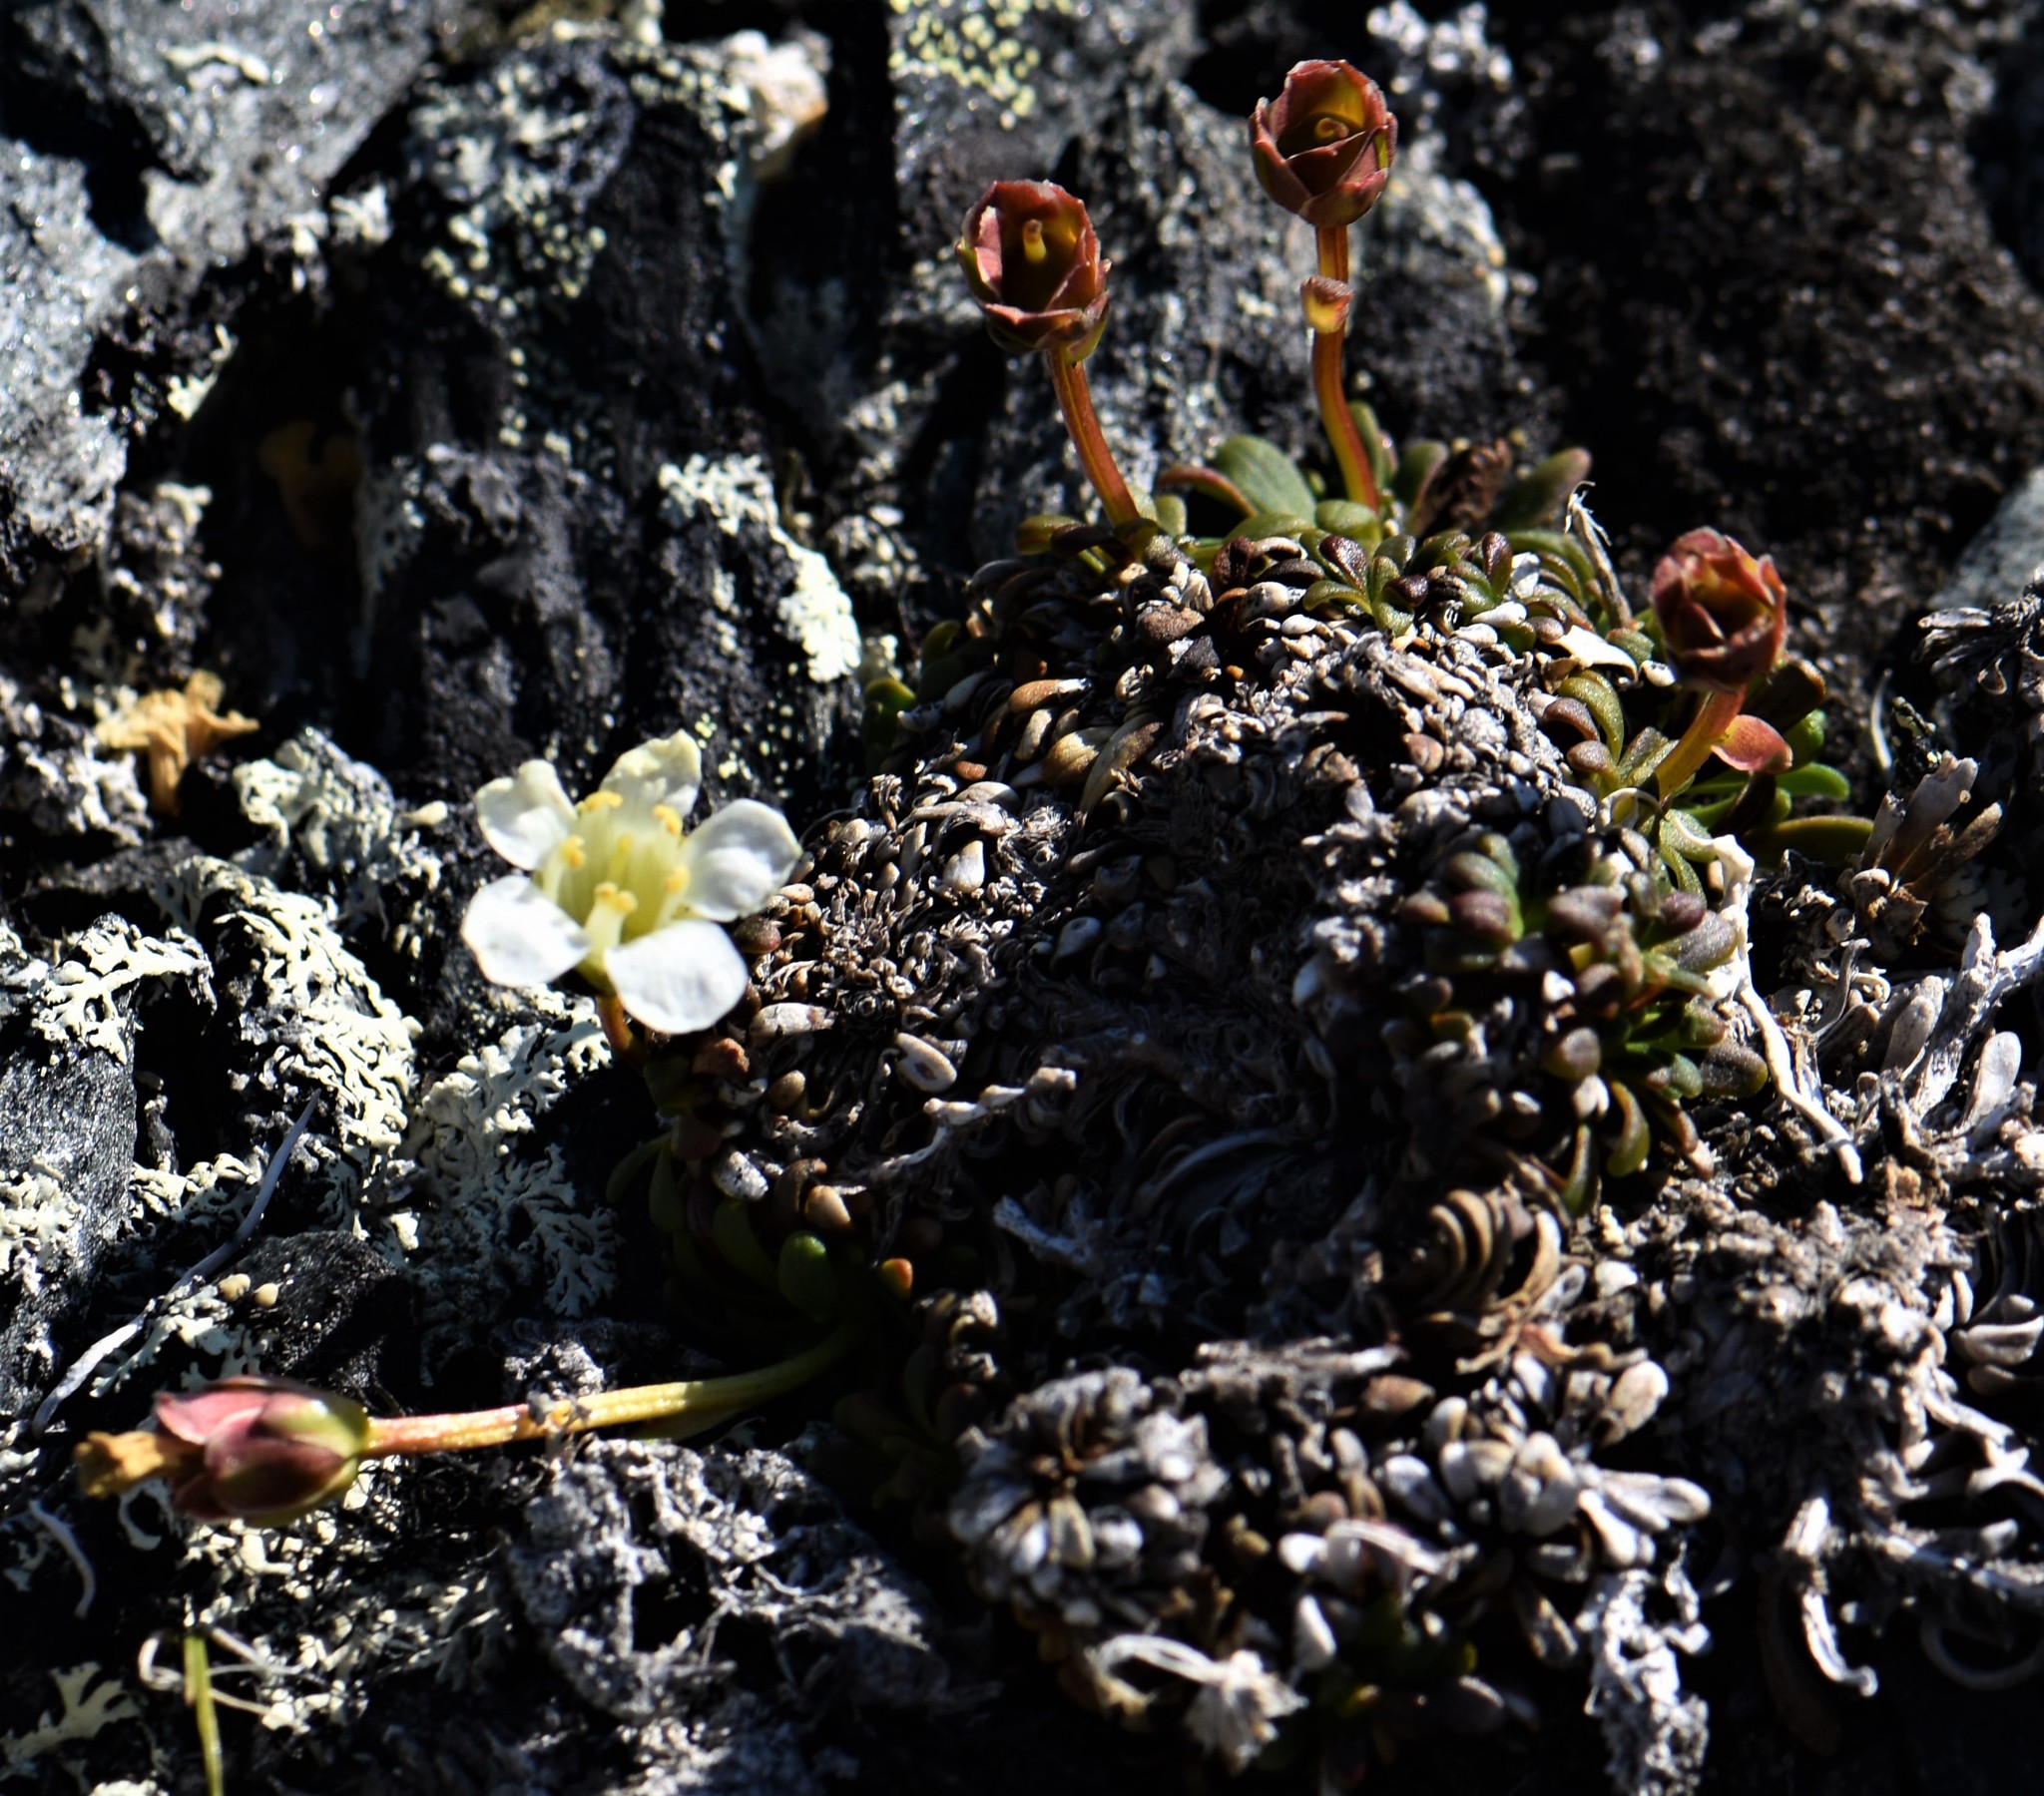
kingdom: Plantae
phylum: Tracheophyta
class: Magnoliopsida
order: Ericales
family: Diapensiaceae
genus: Diapensia
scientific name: Diapensia lapponica
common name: Diapensia
